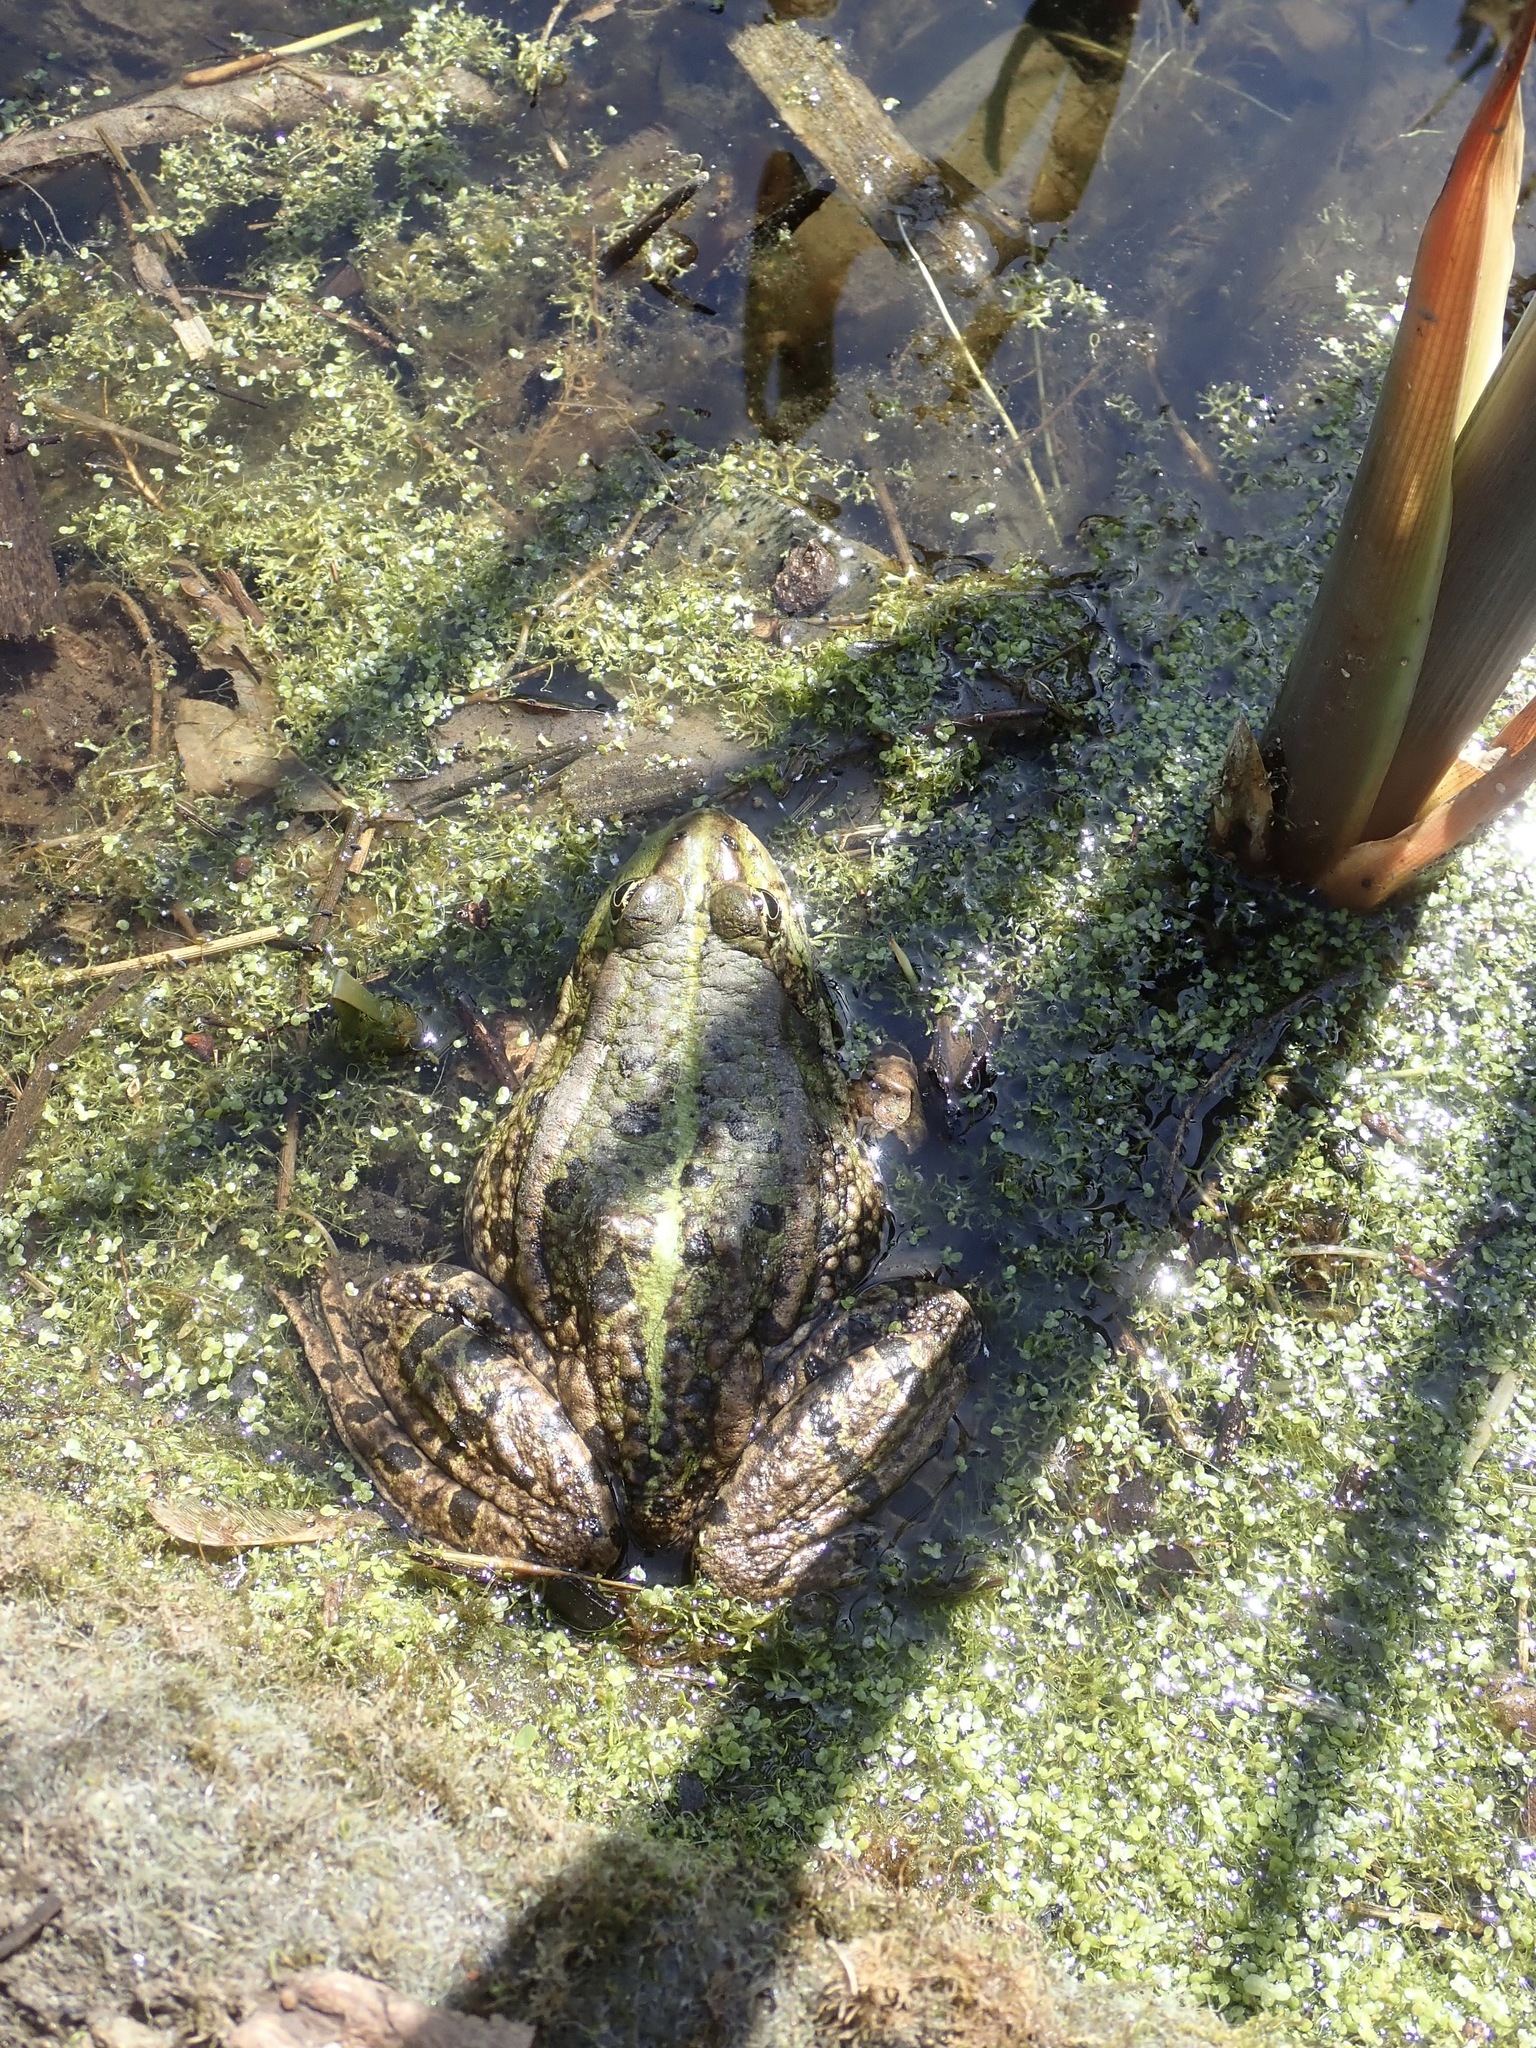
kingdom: Animalia
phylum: Chordata
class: Amphibia
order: Anura
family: Ranidae
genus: Pelophylax
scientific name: Pelophylax ridibundus
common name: Marsh frog
